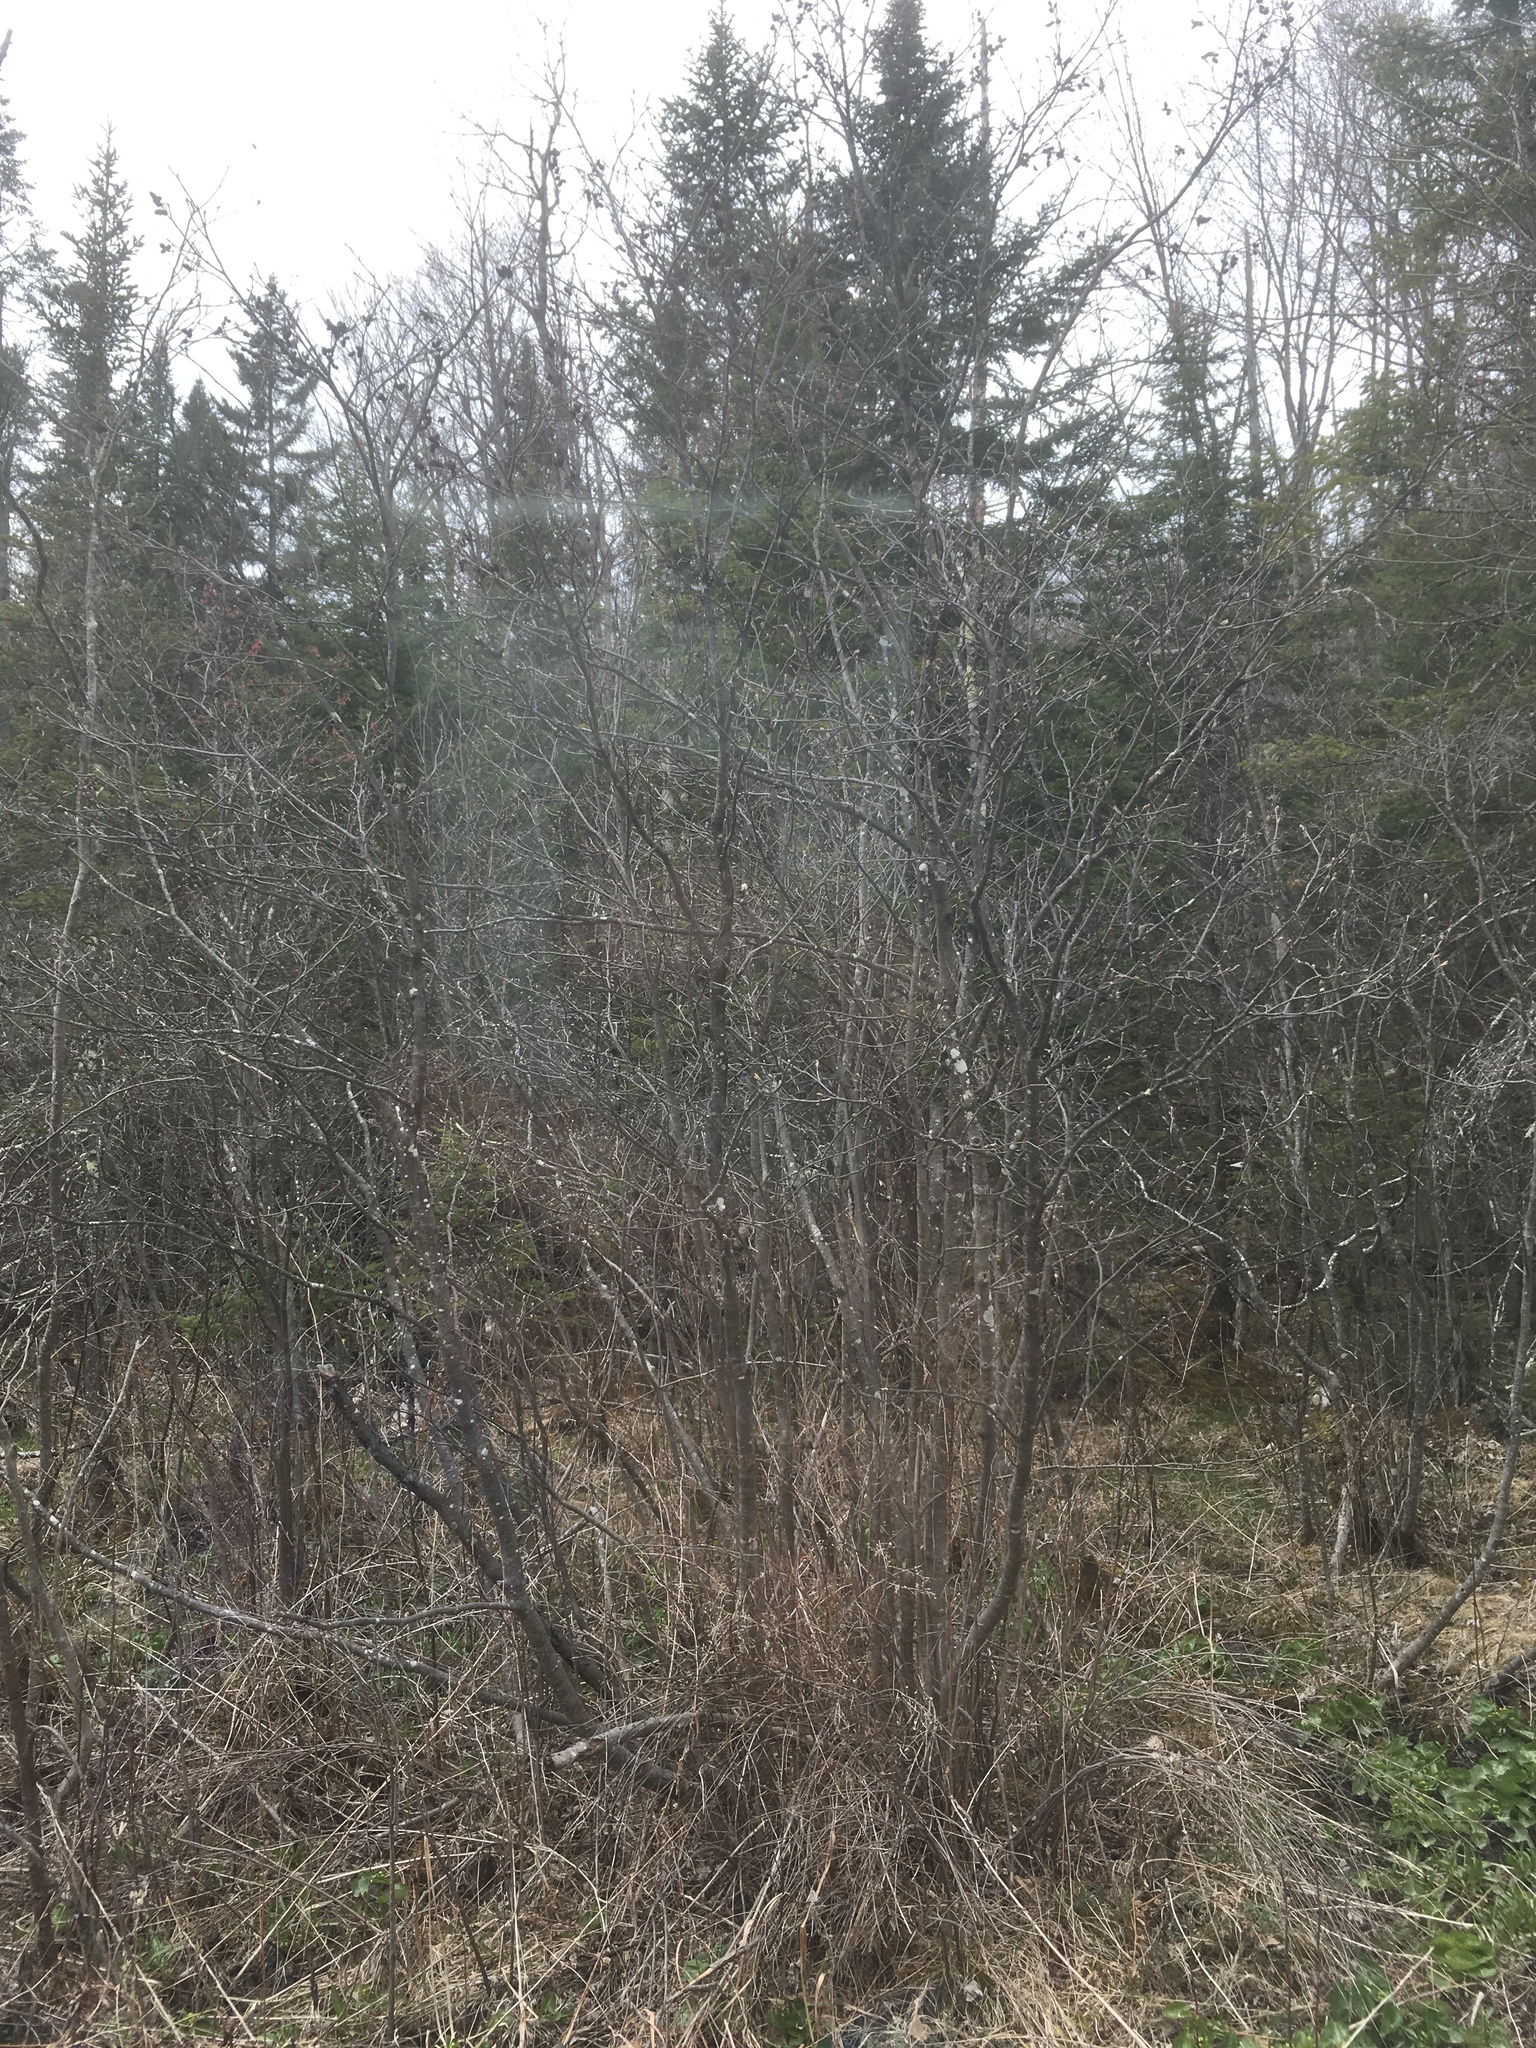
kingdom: Plantae
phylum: Tracheophyta
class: Magnoliopsida
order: Fagales
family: Betulaceae
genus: Alnus
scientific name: Alnus incana
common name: Grey alder
